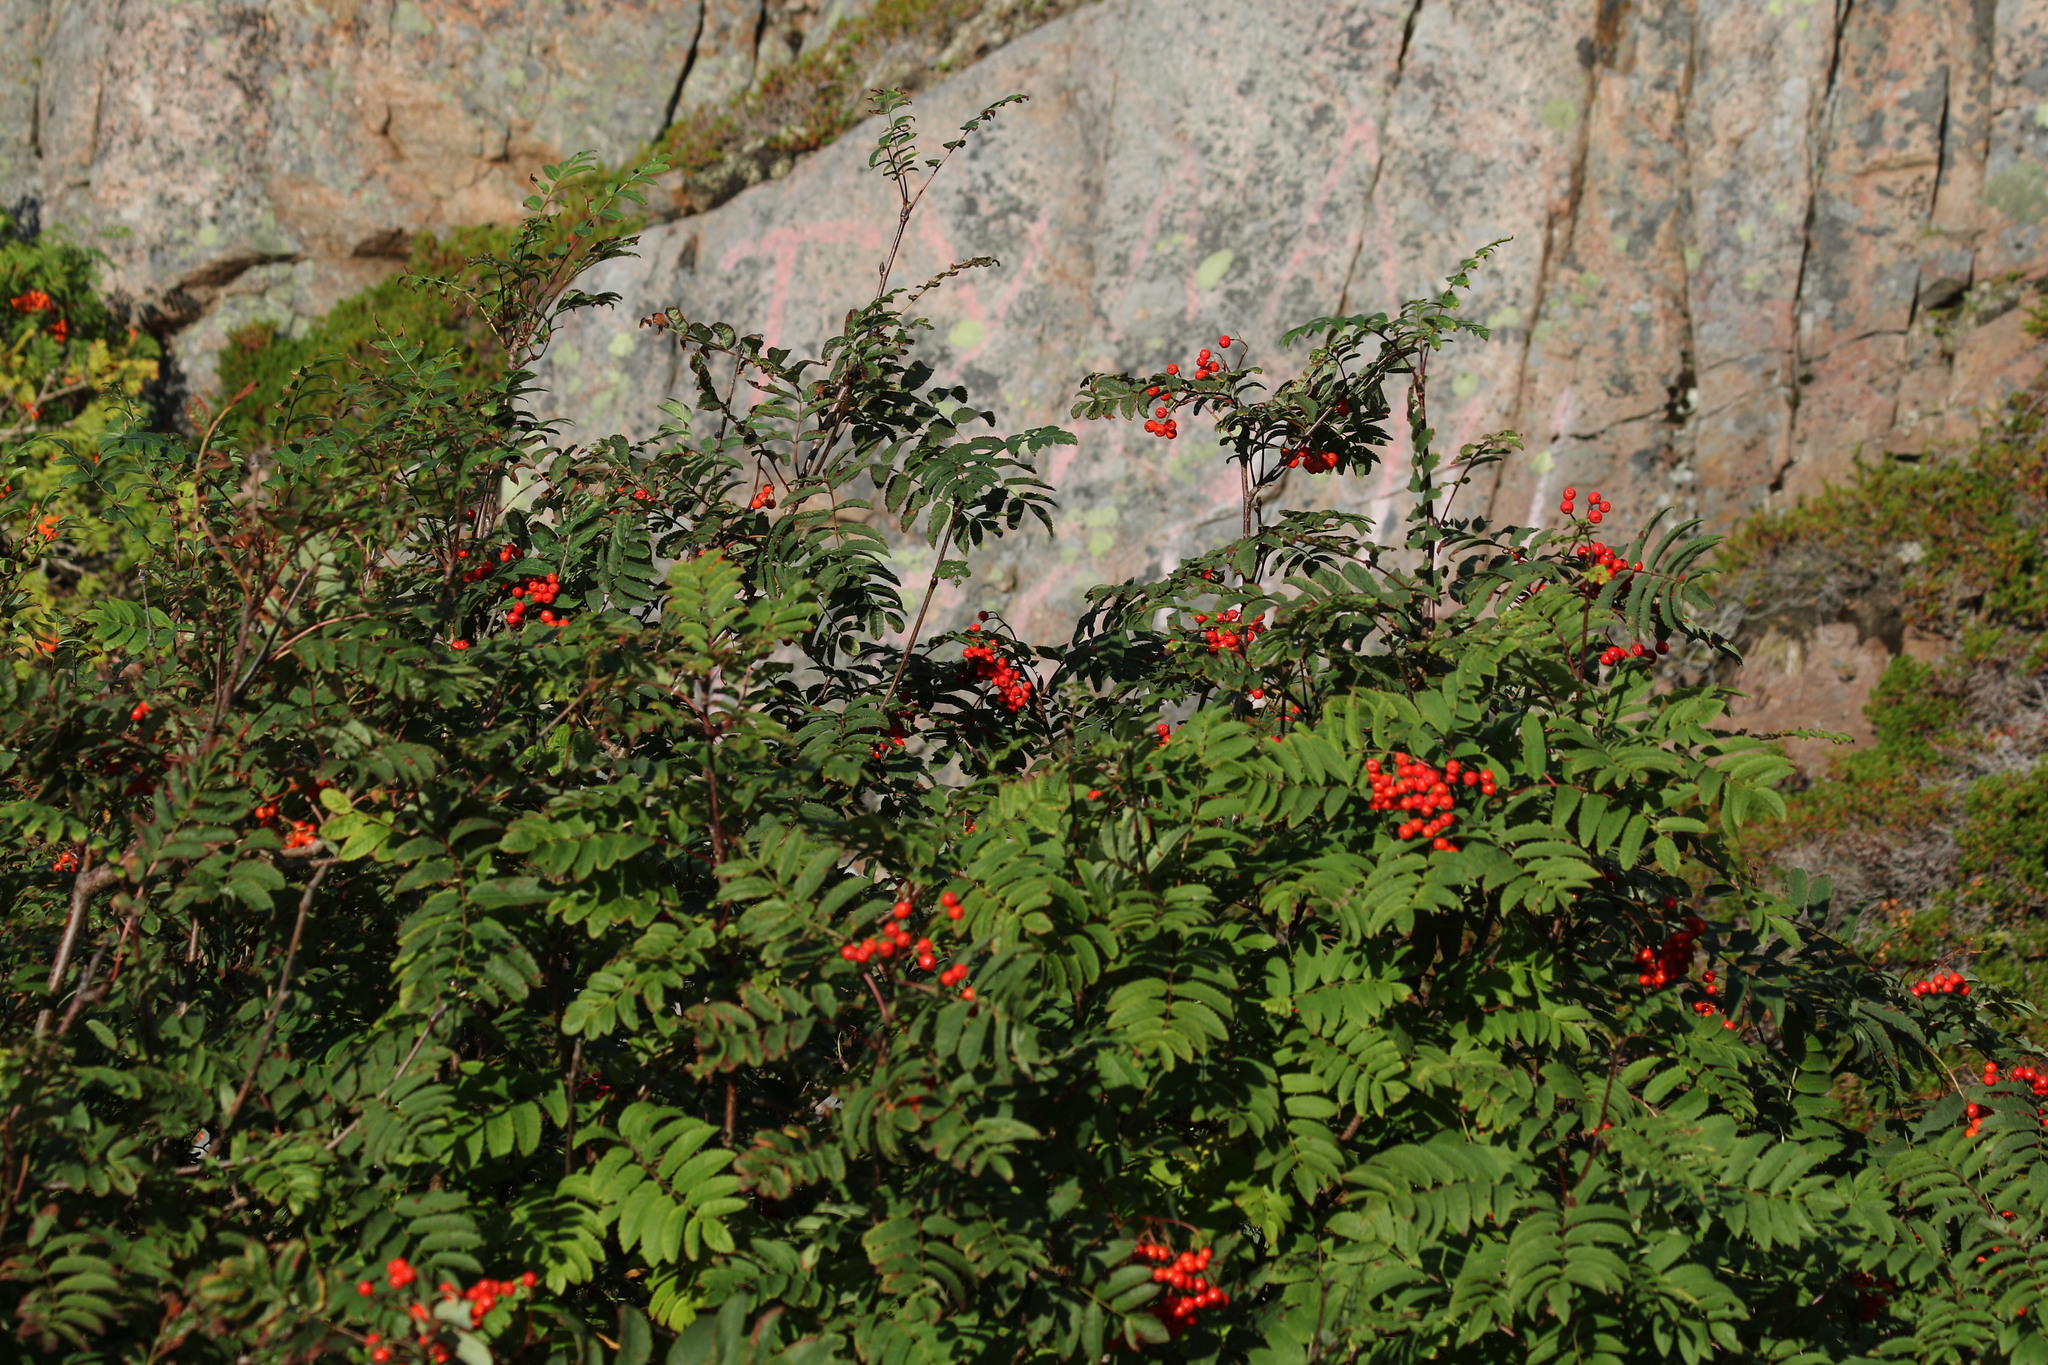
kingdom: Plantae
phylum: Tracheophyta
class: Magnoliopsida
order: Rosales
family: Rosaceae
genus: Sorbus
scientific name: Sorbus aucuparia
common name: Rowan
